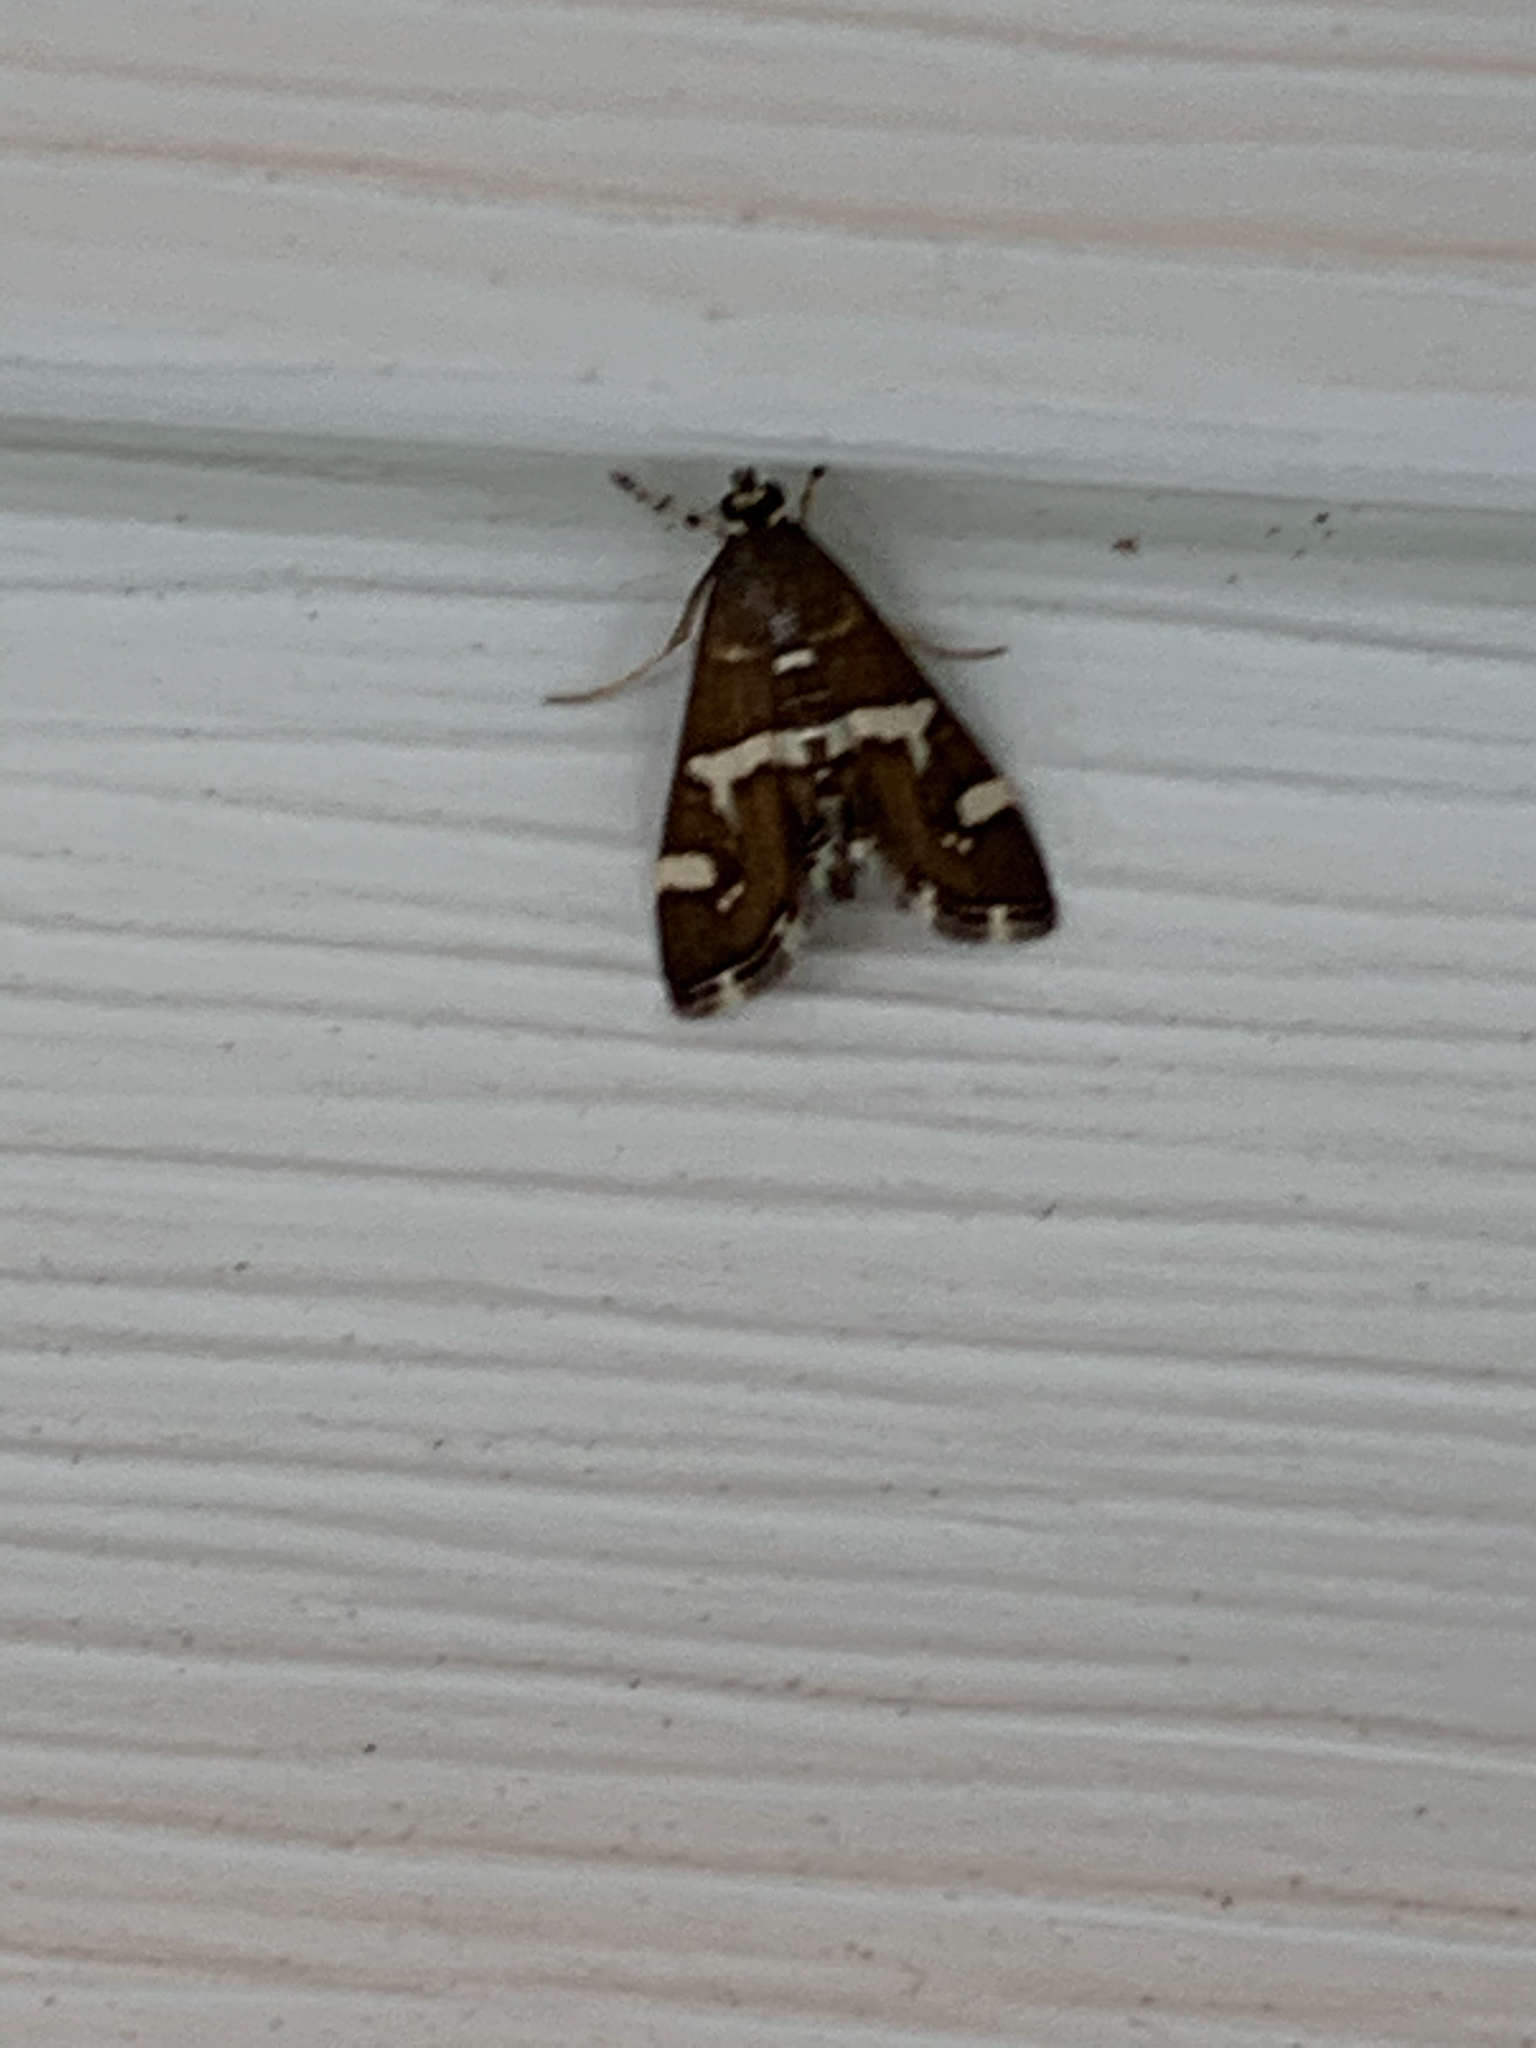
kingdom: Animalia
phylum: Arthropoda
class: Insecta
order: Lepidoptera
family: Crambidae
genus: Spoladea
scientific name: Spoladea recurvalis
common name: Beet webworm moth
